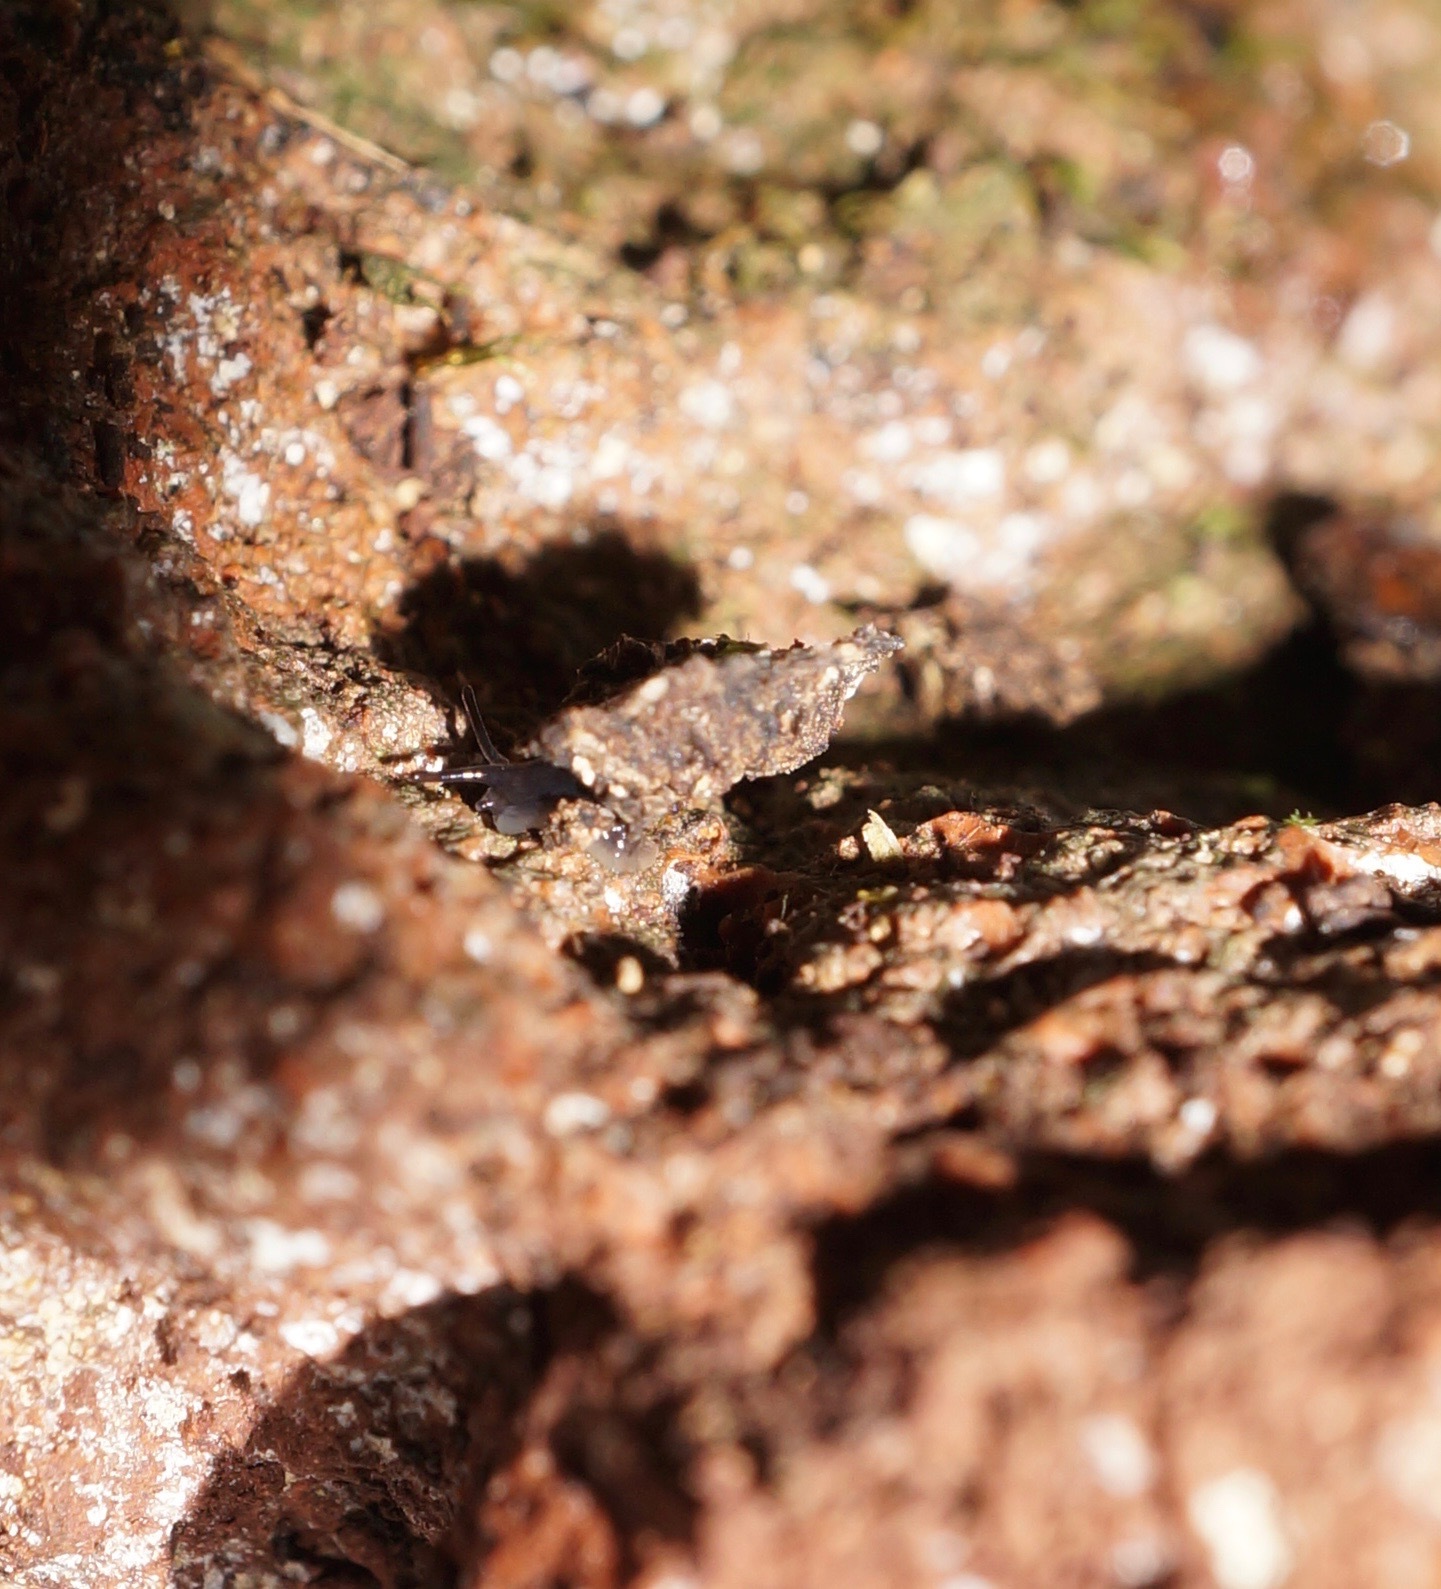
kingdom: Animalia
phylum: Mollusca
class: Gastropoda
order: Stylommatophora
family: Charopidae
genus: Cryptocharopa
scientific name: Cryptocharopa exagitans
